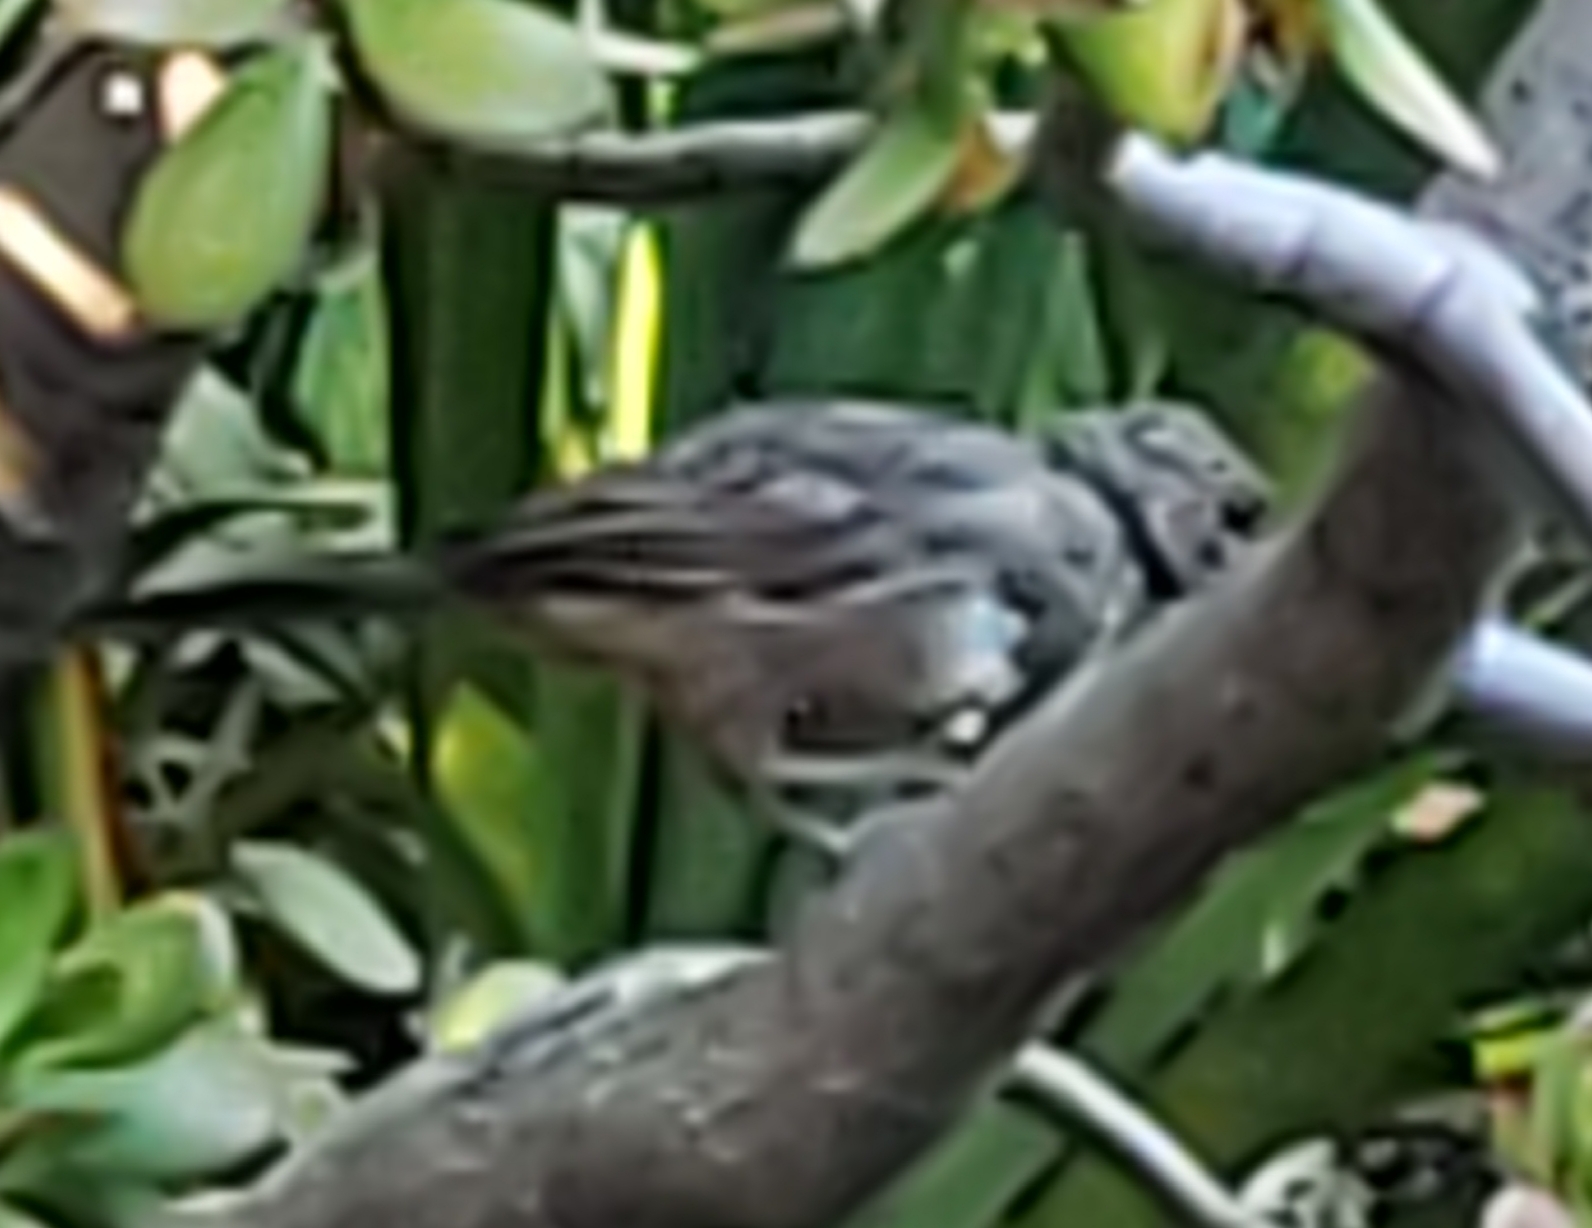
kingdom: Animalia
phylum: Chordata
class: Aves
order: Passeriformes
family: Passerellidae
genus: Melozone
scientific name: Melozone crissalis
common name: California towhee
